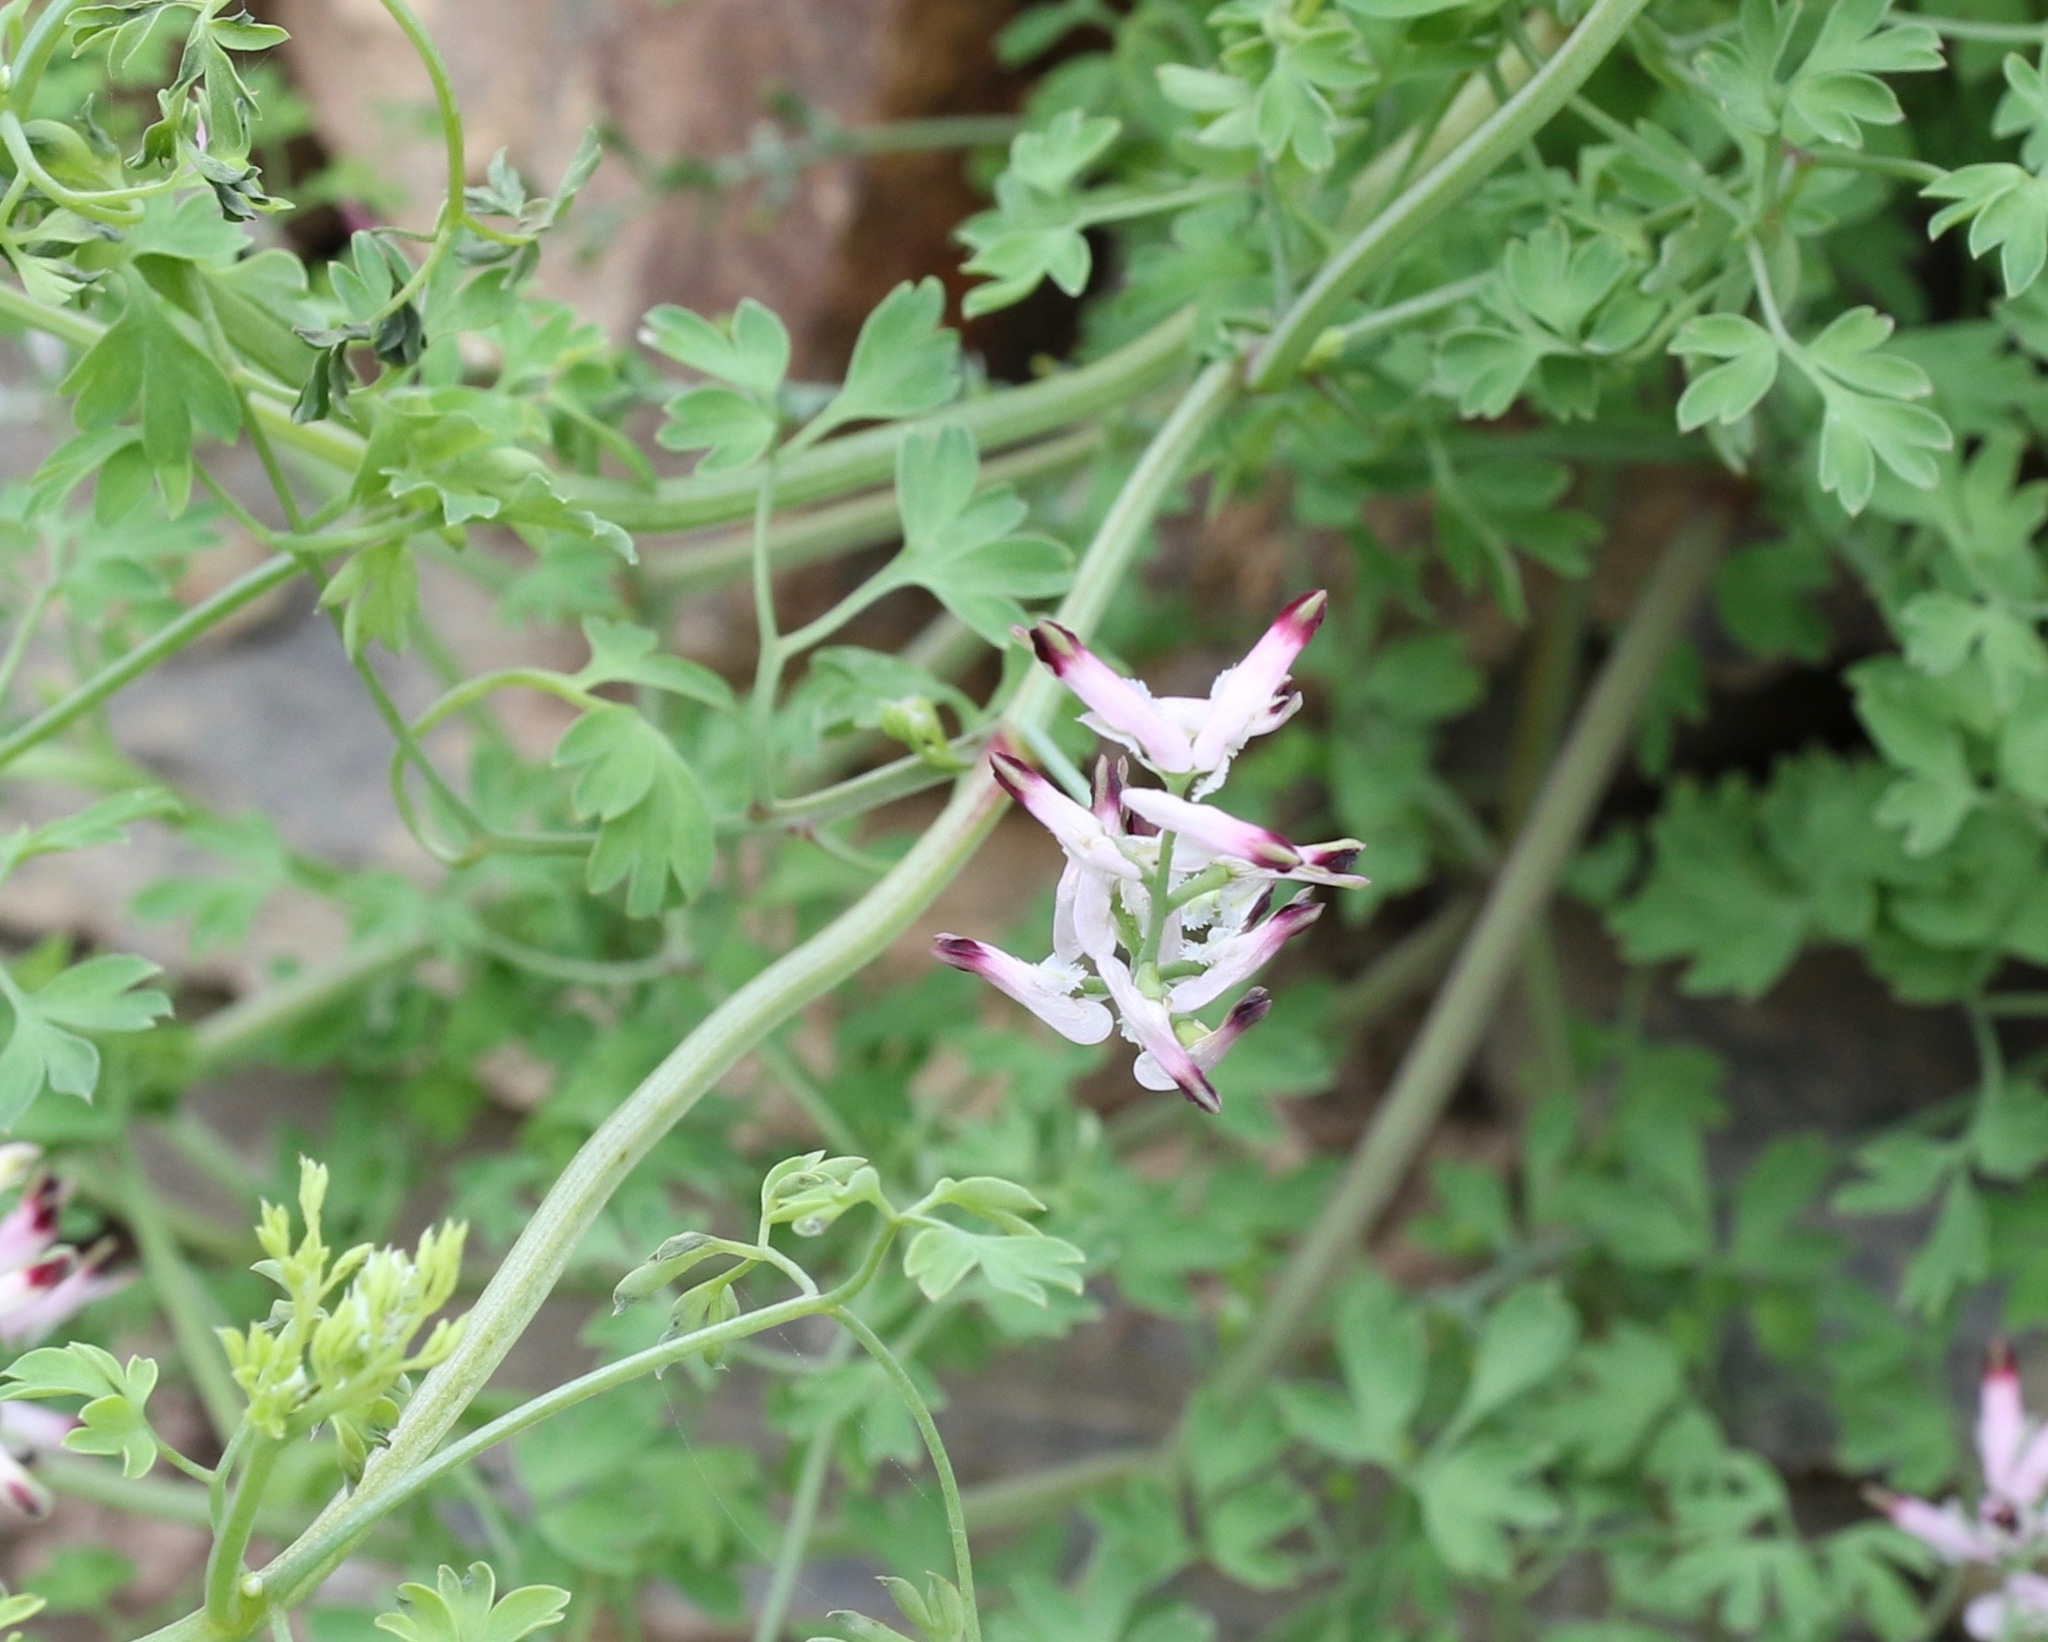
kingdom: Plantae
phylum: Tracheophyta
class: Magnoliopsida
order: Ranunculales
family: Papaveraceae
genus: Fumaria
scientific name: Fumaria muralis
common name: Common ramping-fumitory
